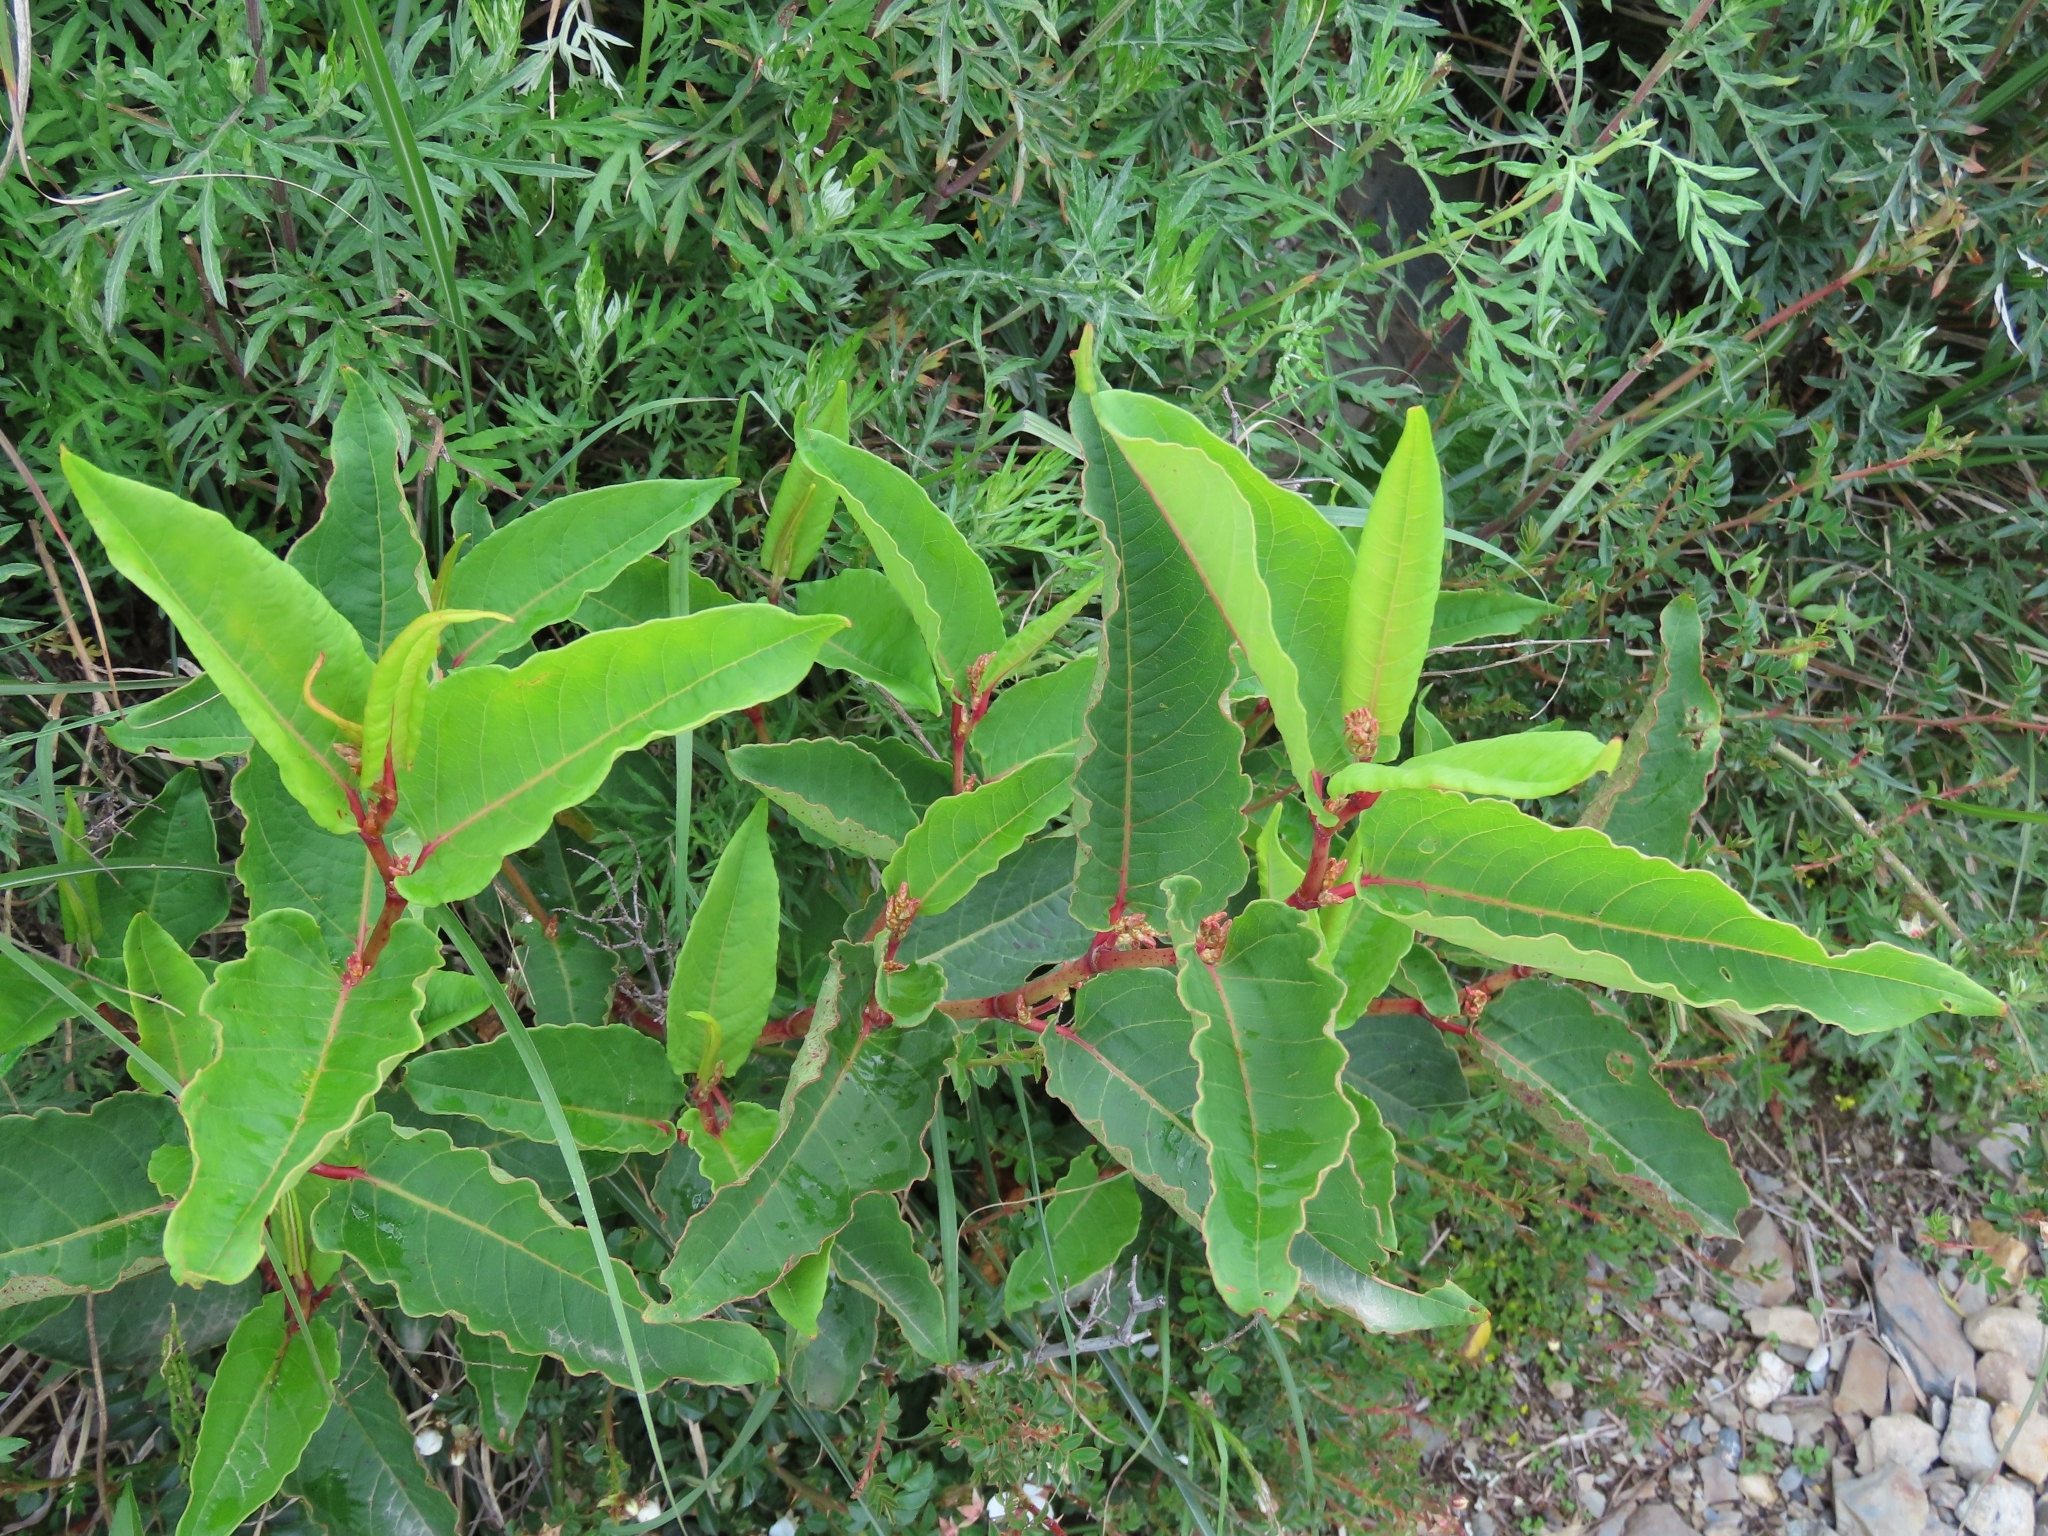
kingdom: Plantae
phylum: Tracheophyta
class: Magnoliopsida
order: Caryophyllales
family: Polygonaceae
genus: Reynoutria
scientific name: Reynoutria japonica
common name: Japanese knotweed
